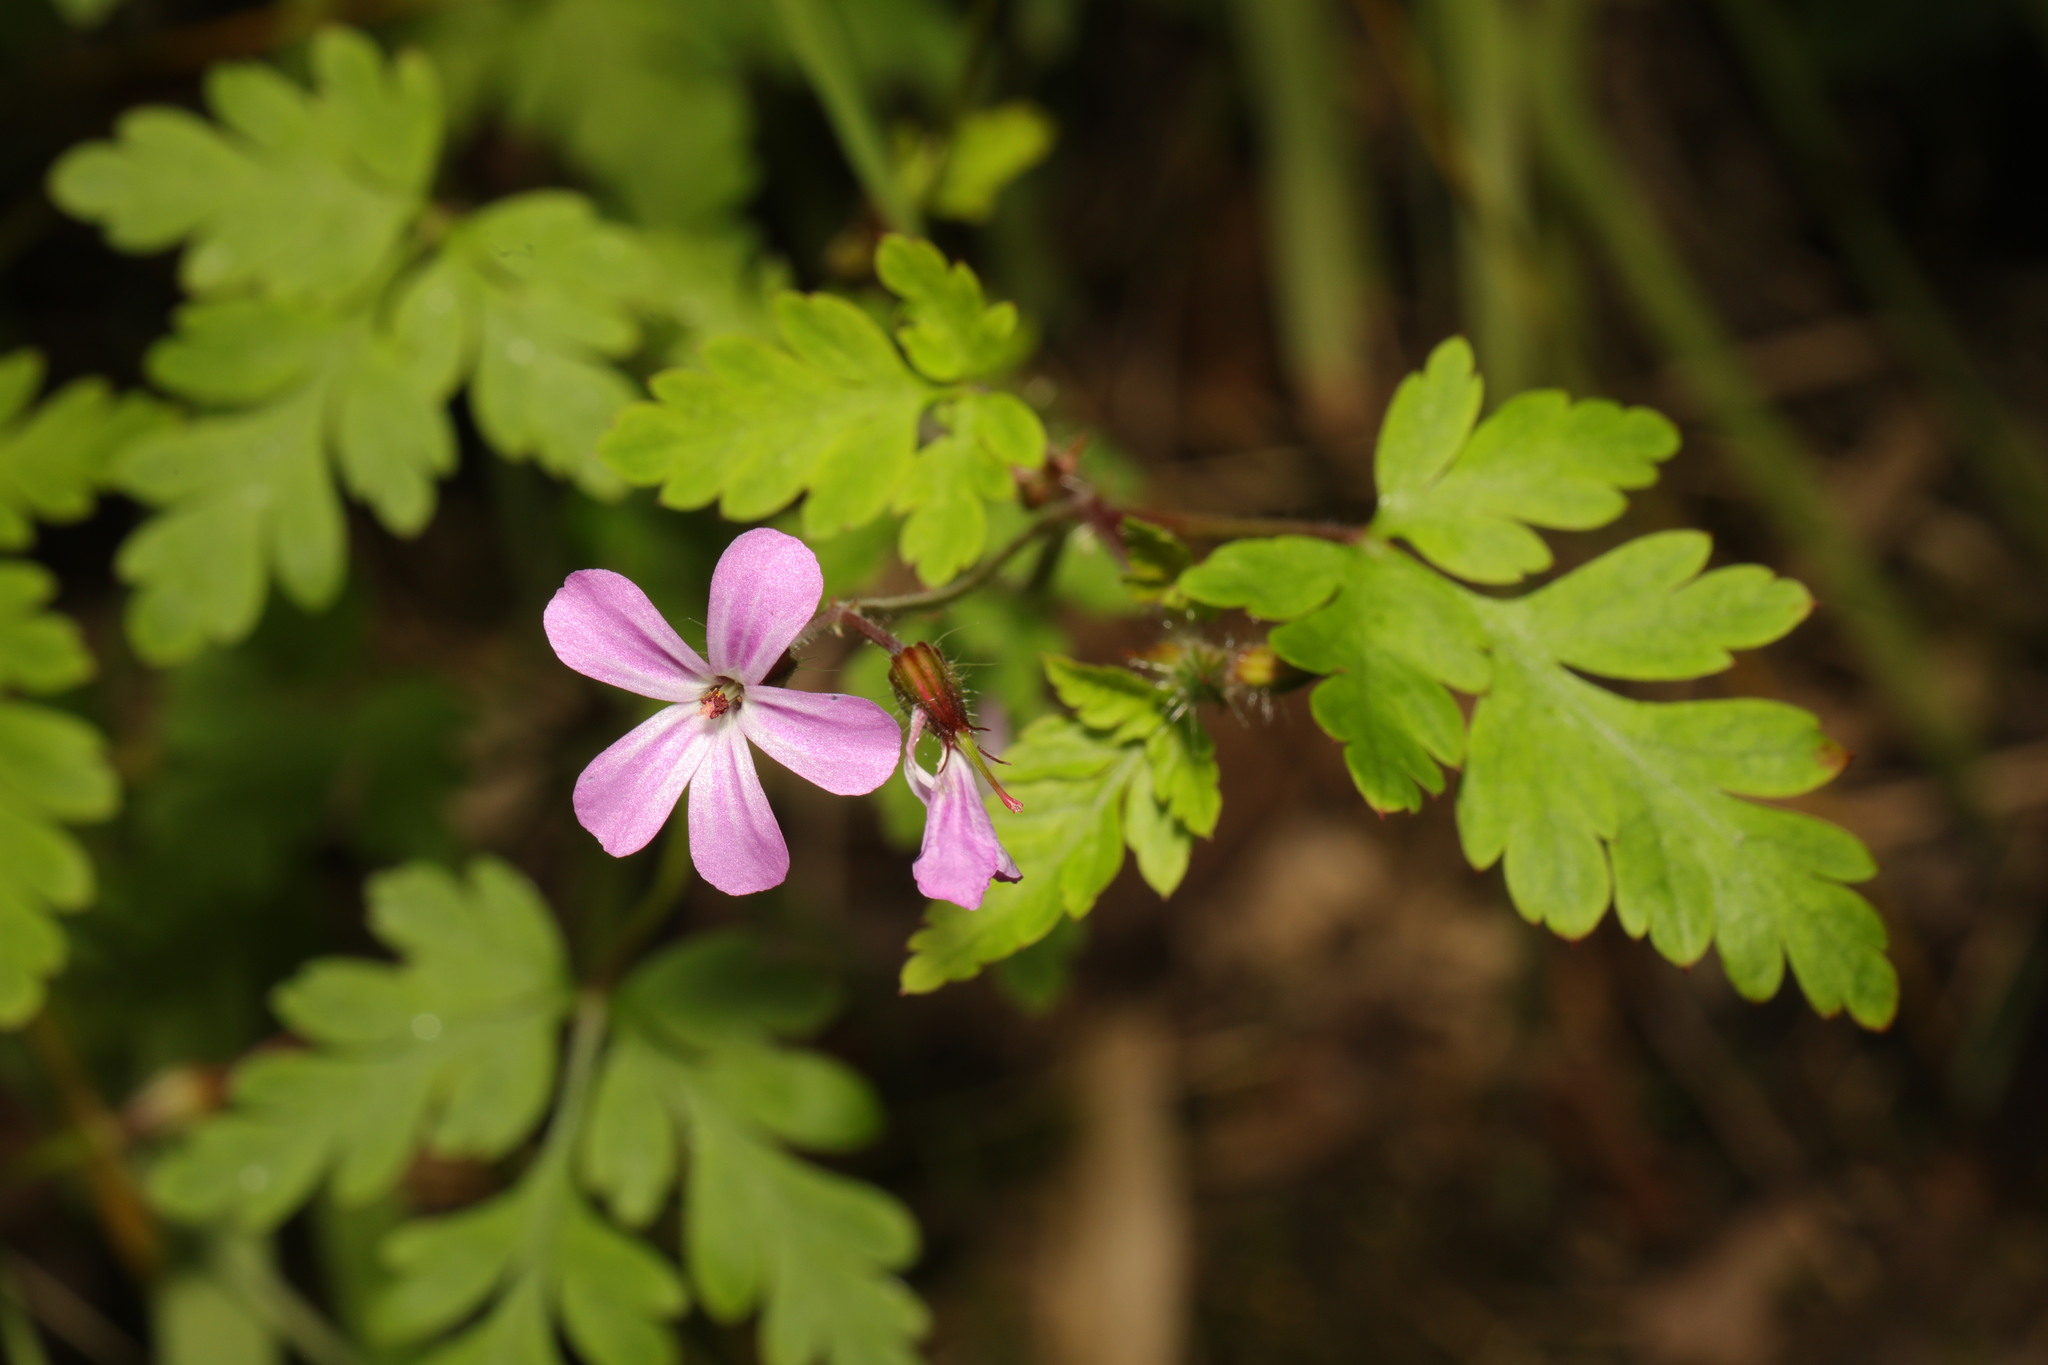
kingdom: Plantae
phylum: Tracheophyta
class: Magnoliopsida
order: Geraniales
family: Geraniaceae
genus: Geranium
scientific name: Geranium robertianum
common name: Herb-robert
